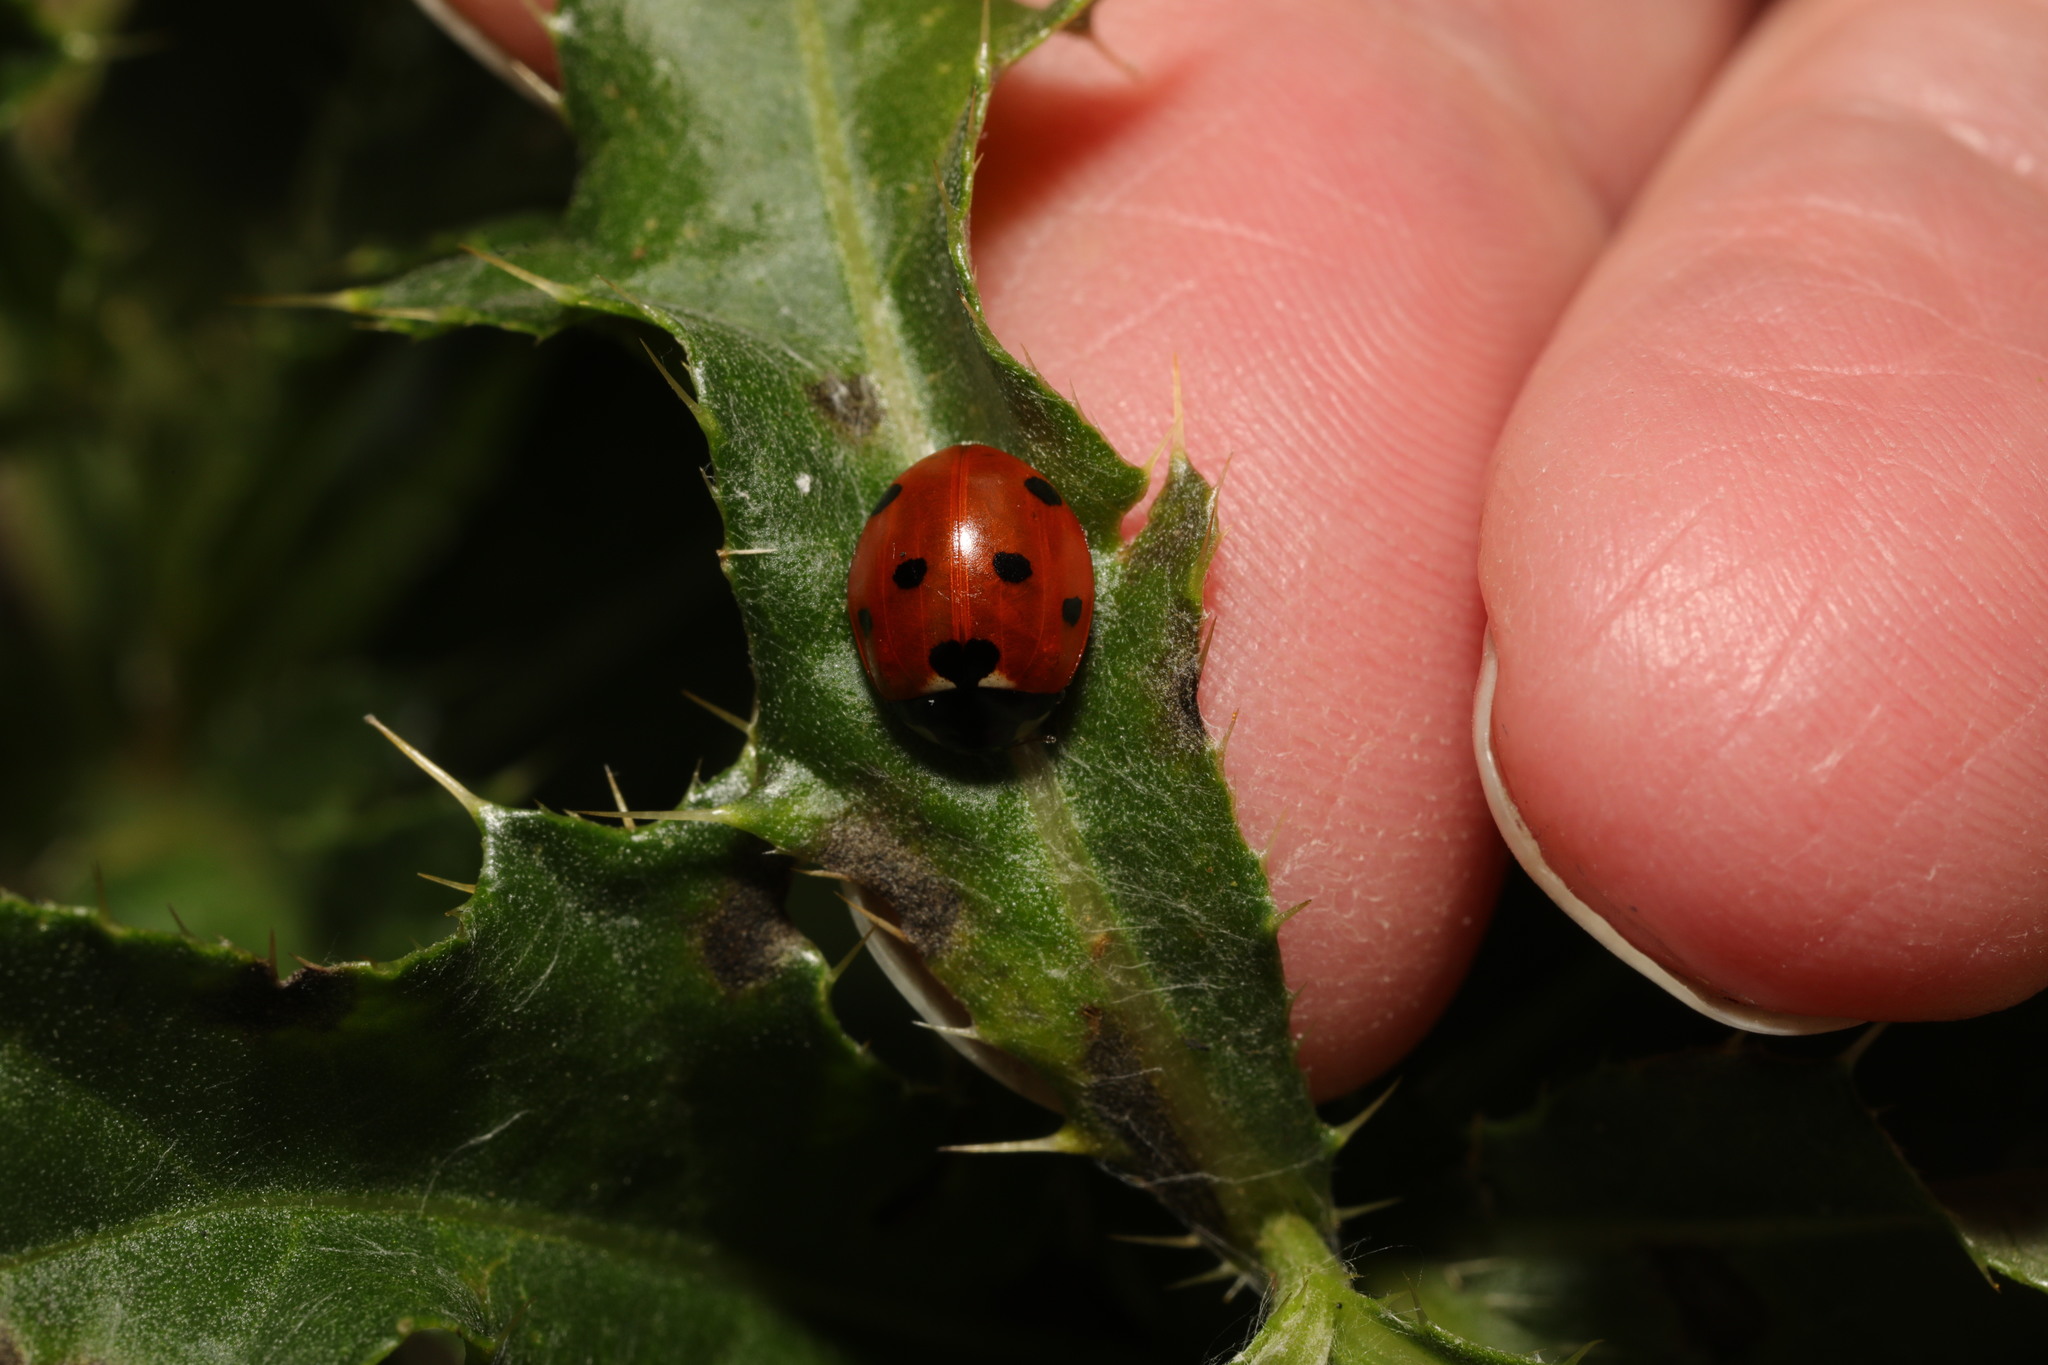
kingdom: Animalia
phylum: Arthropoda
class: Insecta
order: Coleoptera
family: Coccinellidae
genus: Coccinella
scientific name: Coccinella septempunctata
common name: Sevenspotted lady beetle
